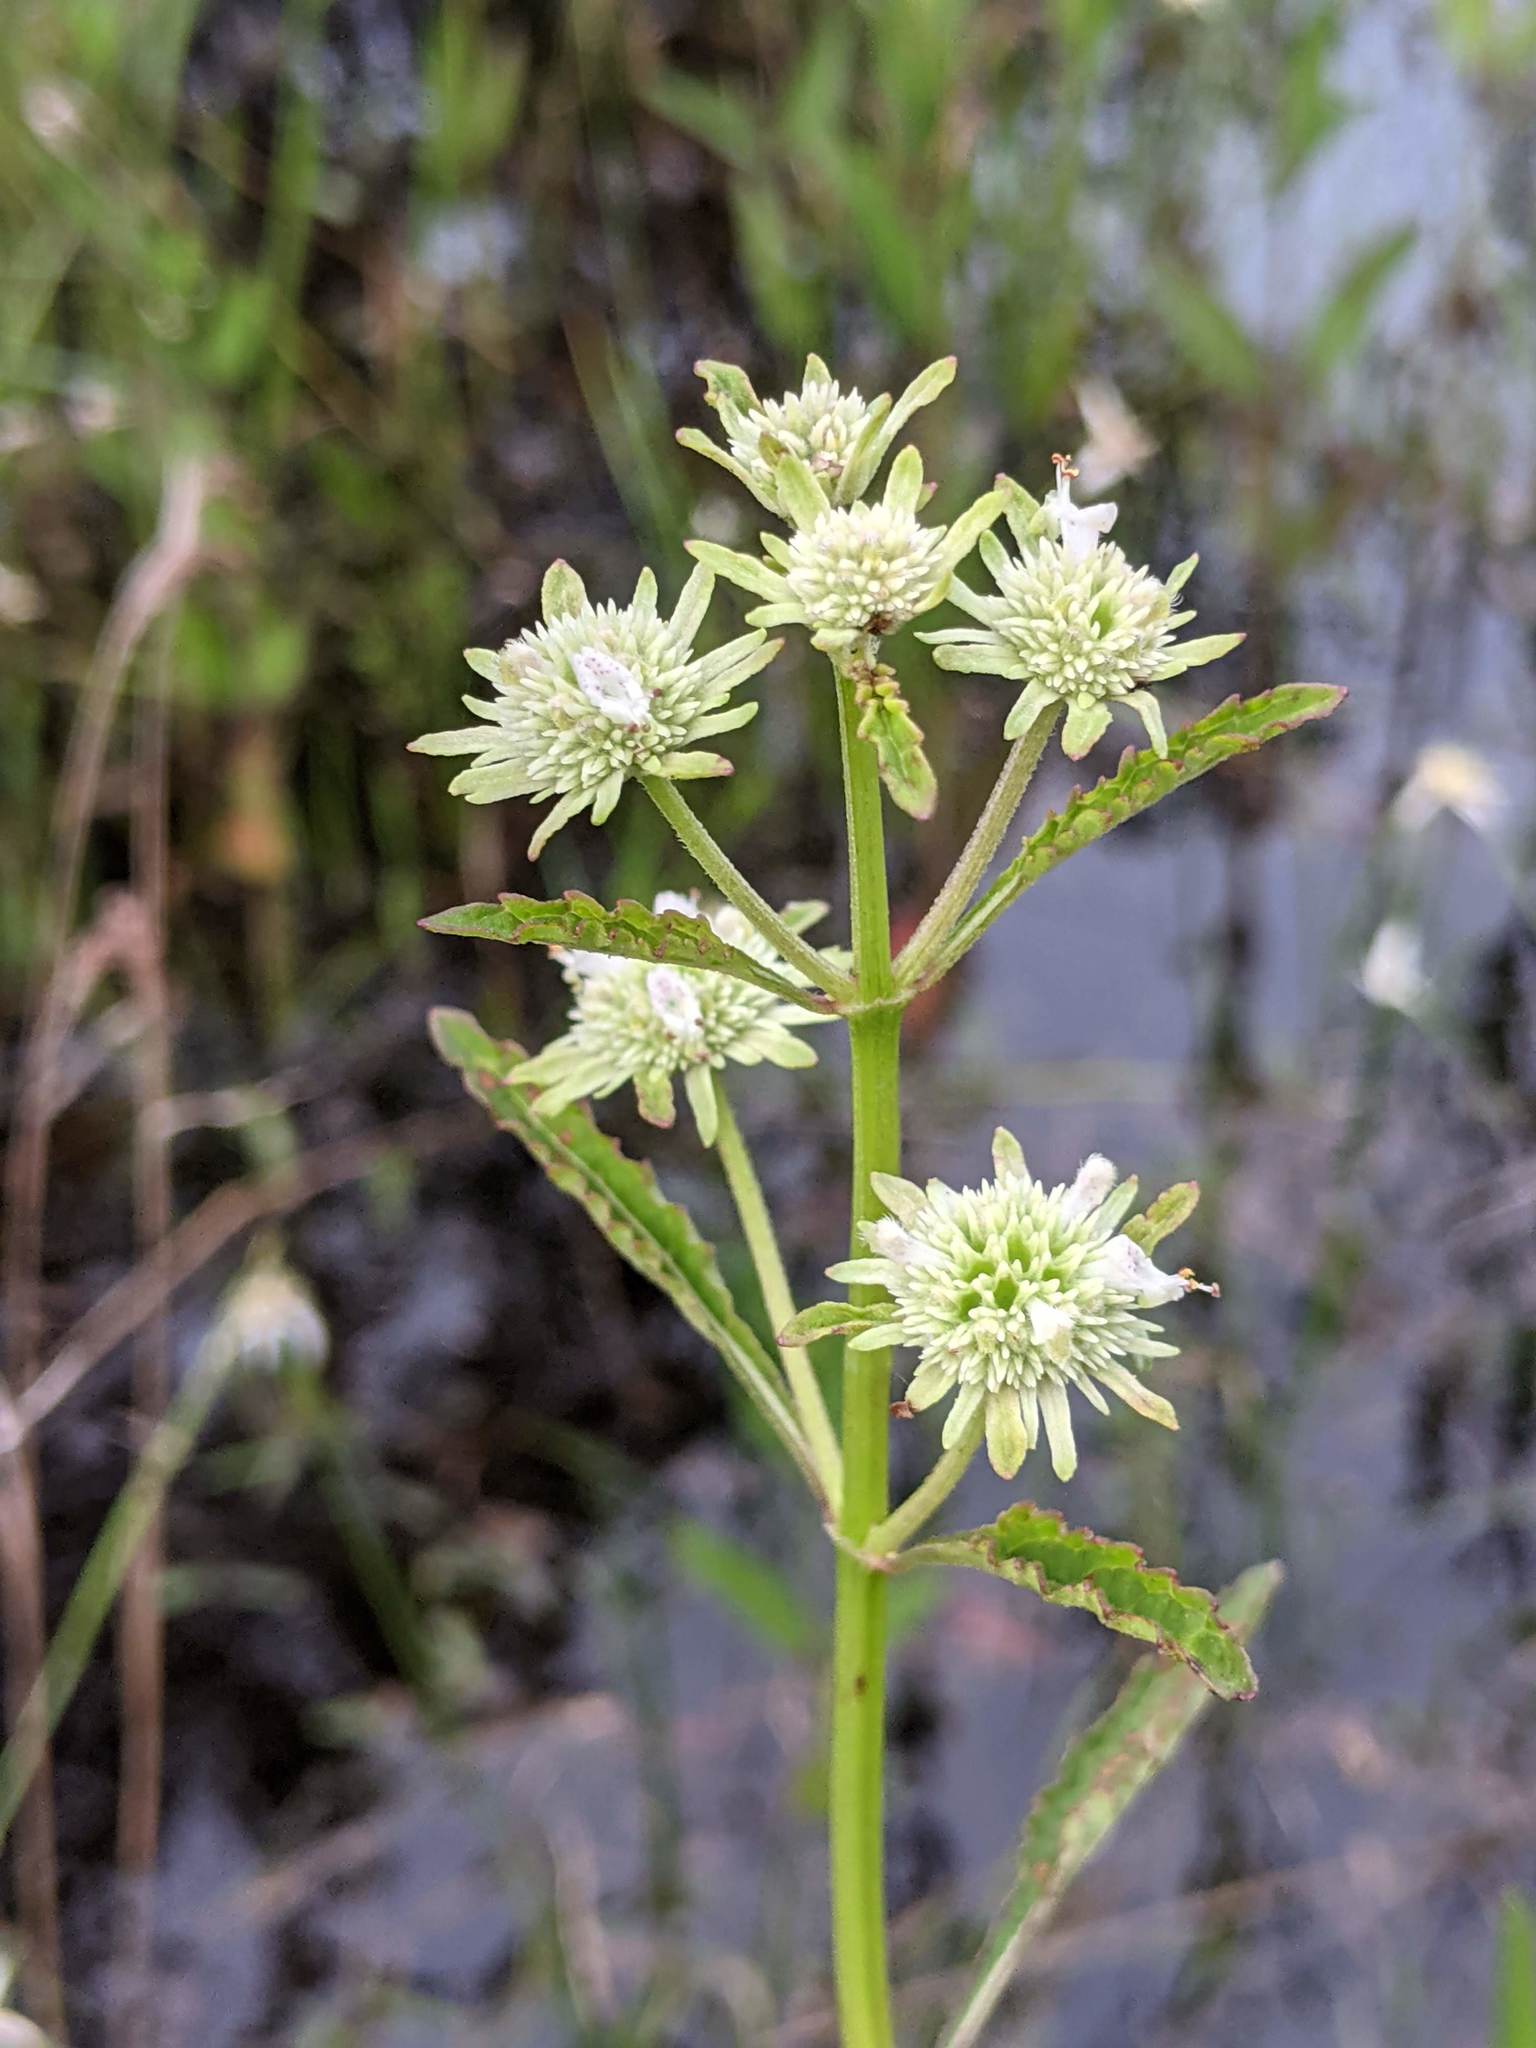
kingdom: Plantae
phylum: Tracheophyta
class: Magnoliopsida
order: Lamiales
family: Lamiaceae
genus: Hyptis
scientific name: Hyptis alata
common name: Cluster bush-mint
